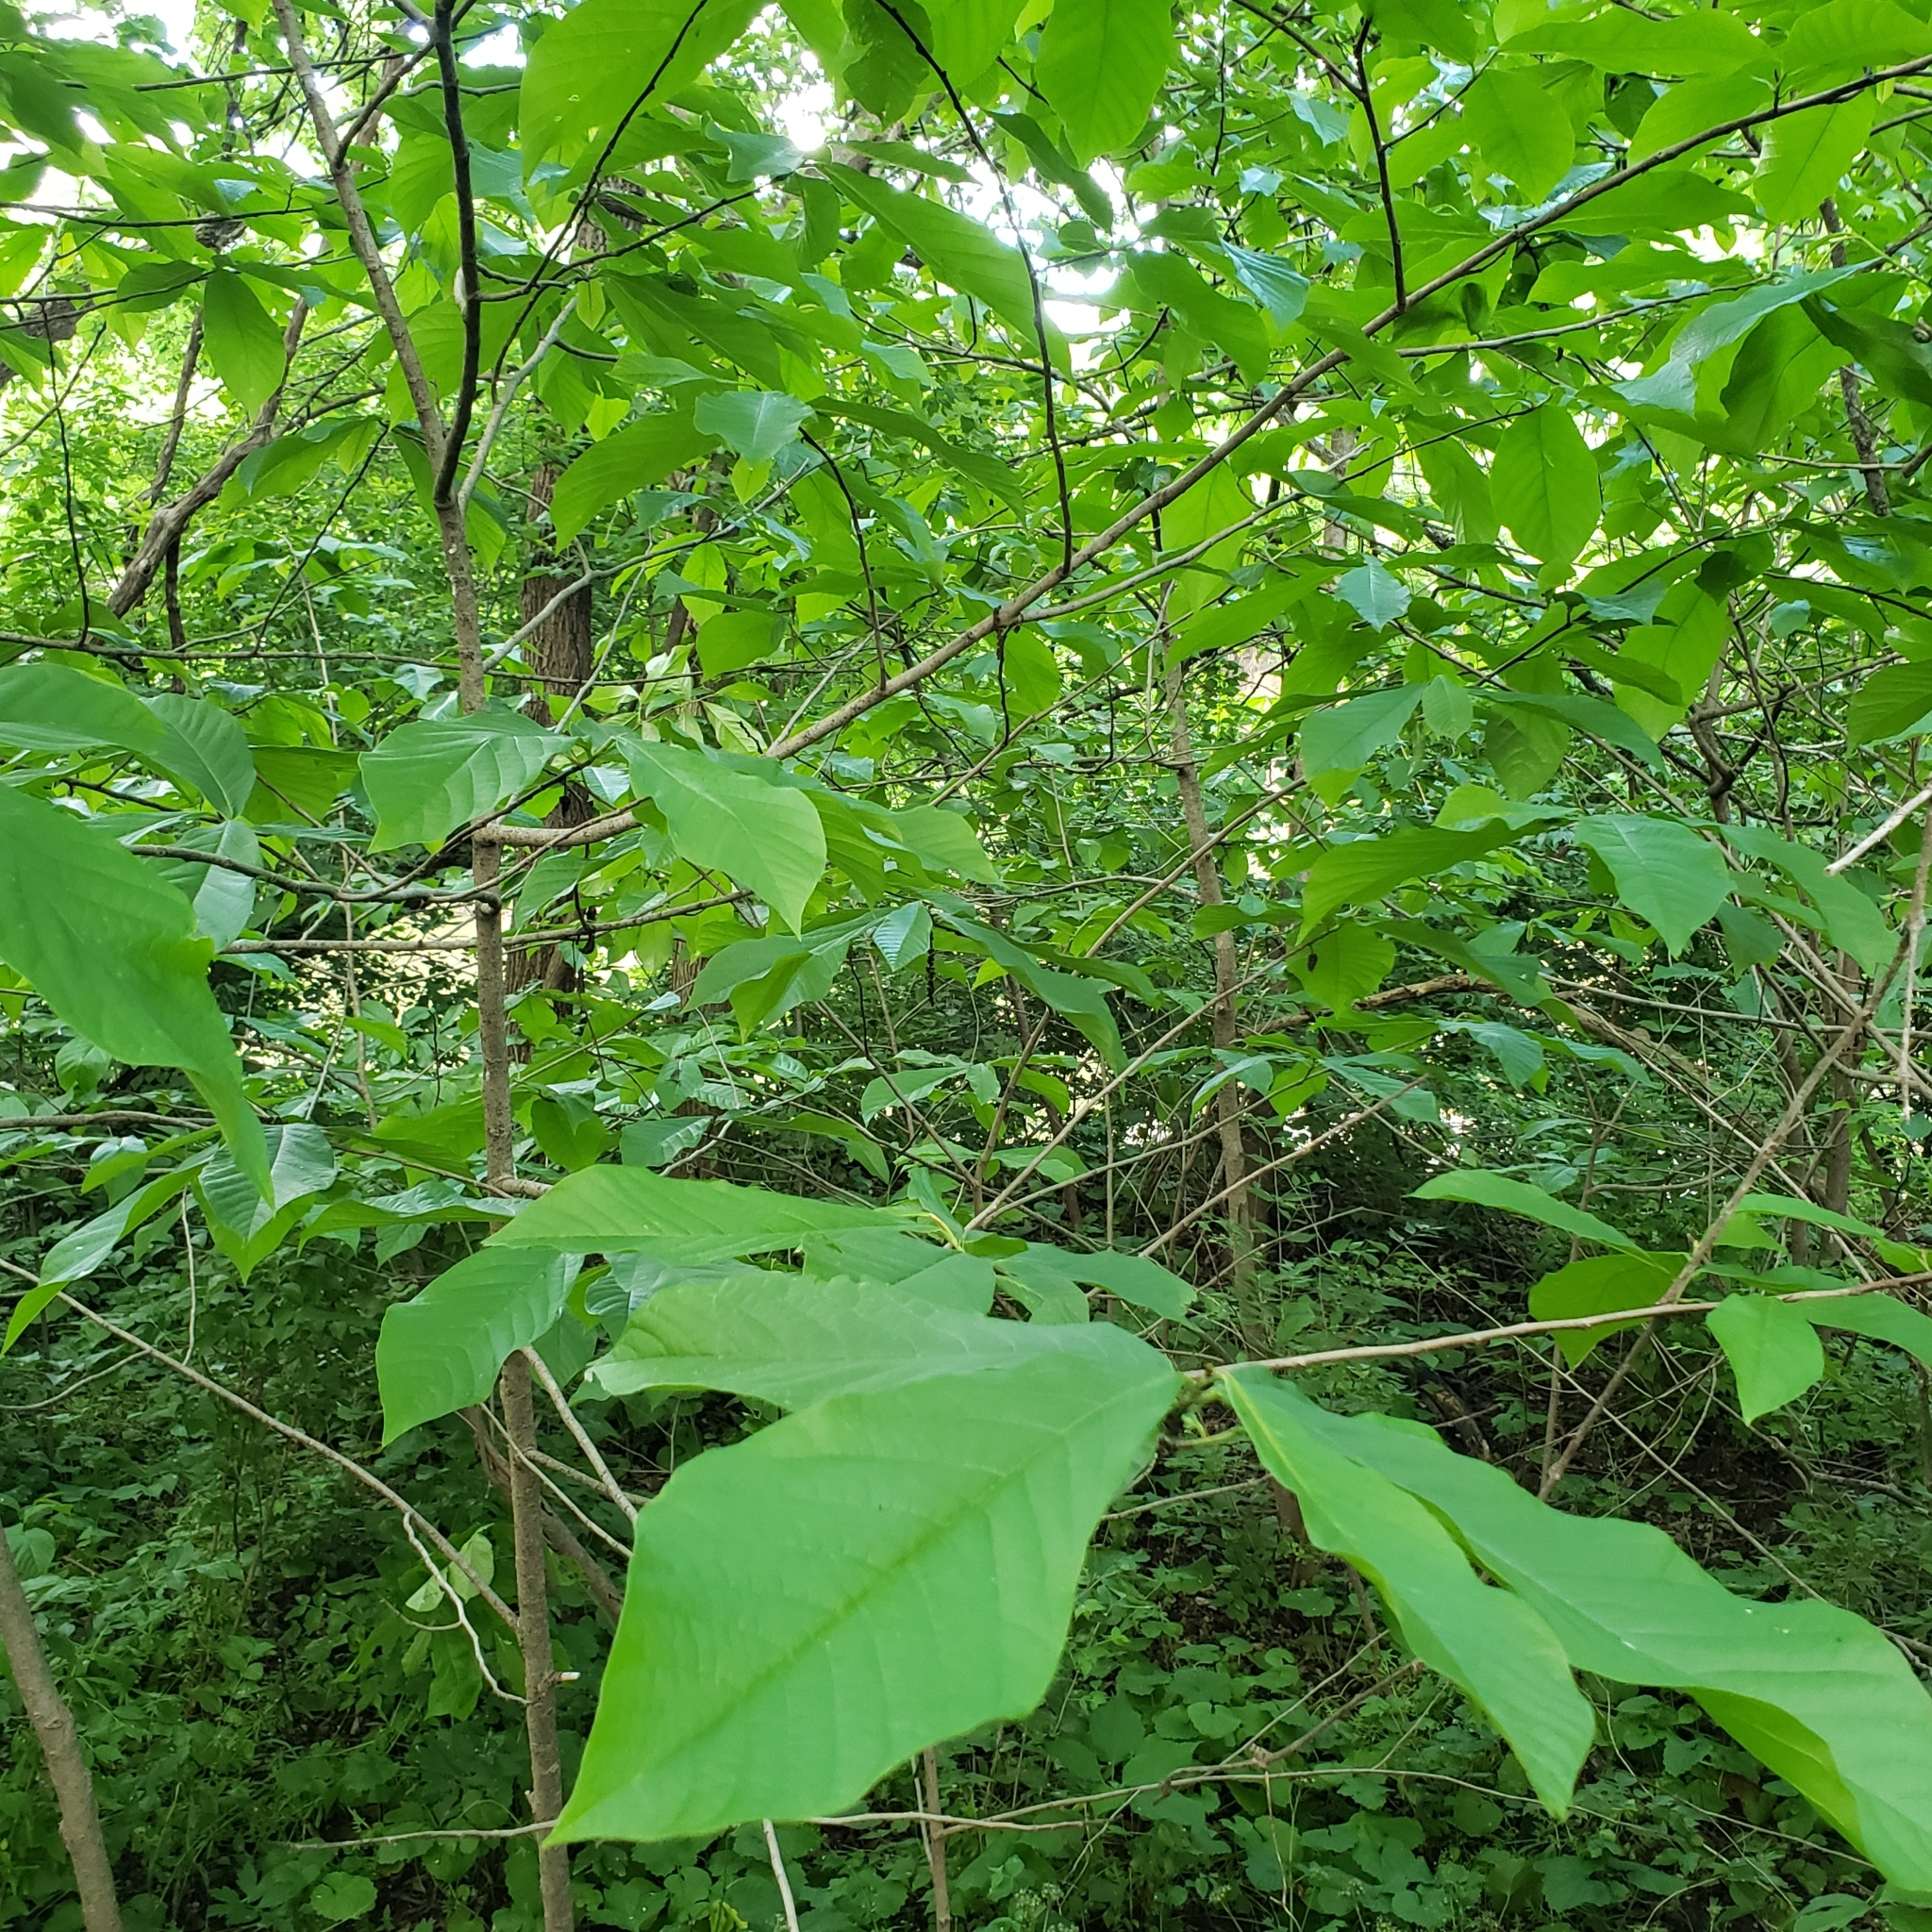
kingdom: Plantae
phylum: Tracheophyta
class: Magnoliopsida
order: Magnoliales
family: Annonaceae
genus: Asimina
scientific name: Asimina triloba
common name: Dog-banana
